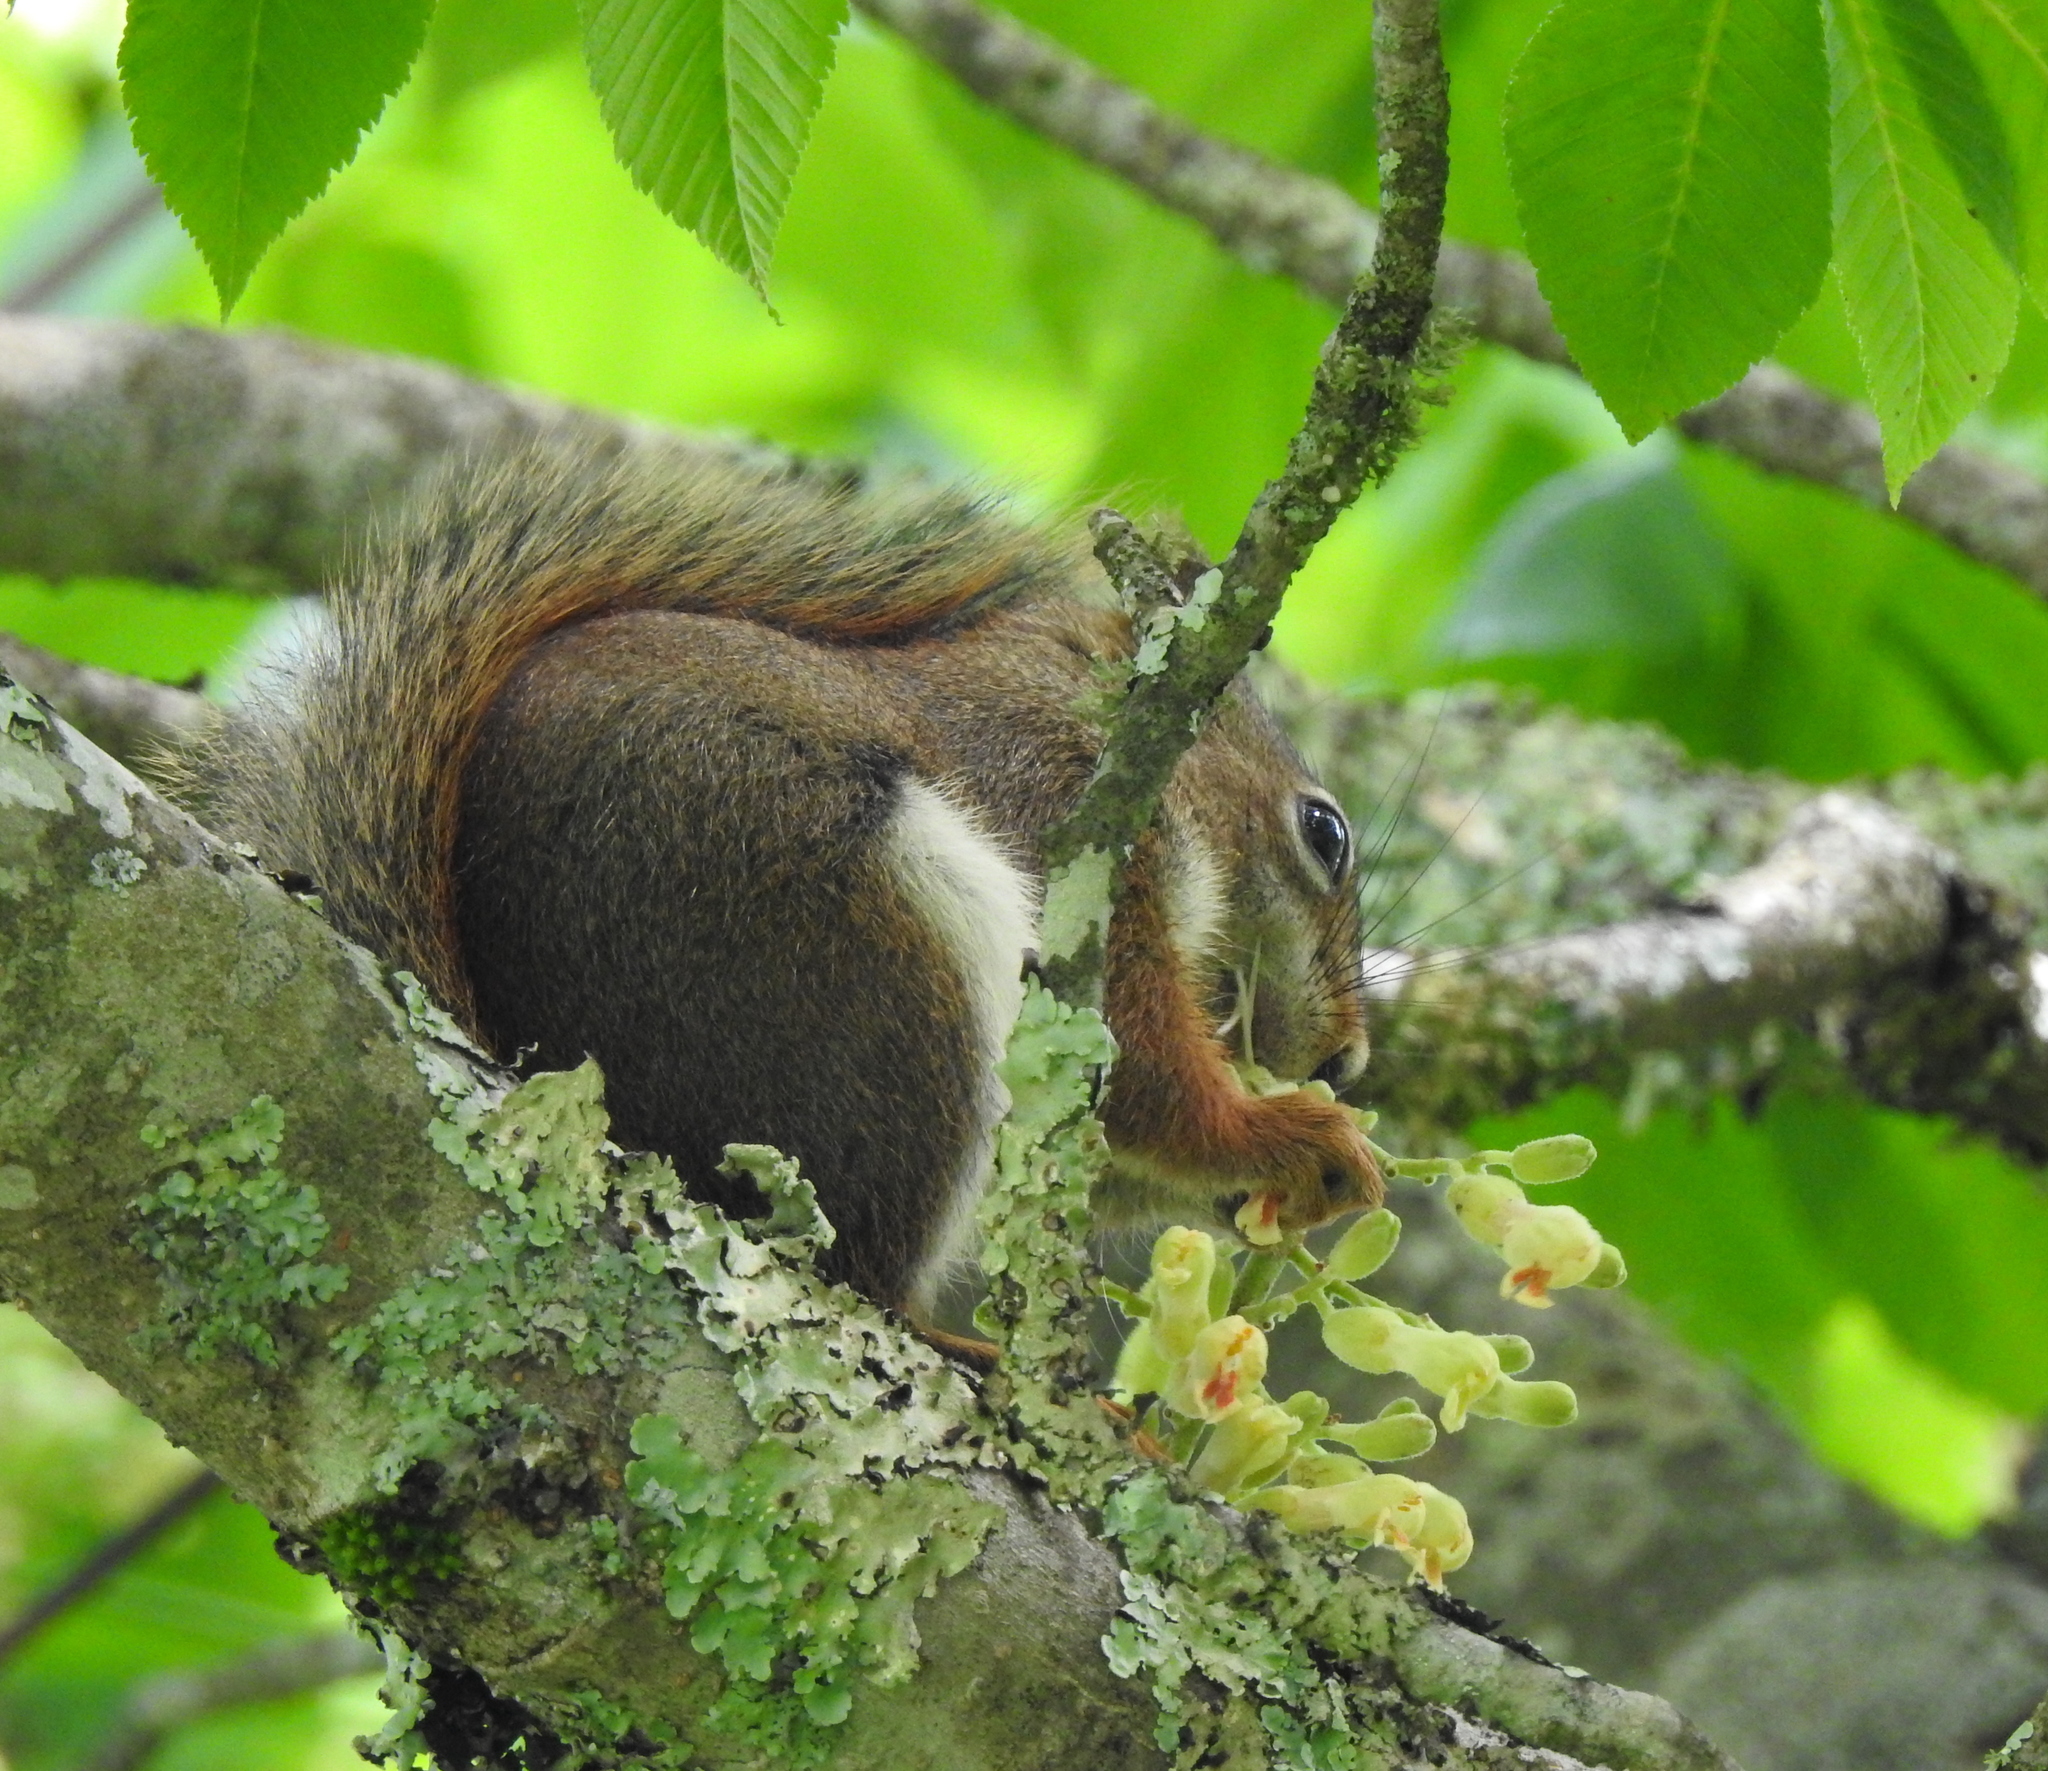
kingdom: Animalia
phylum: Chordata
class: Mammalia
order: Rodentia
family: Sciuridae
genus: Tamiasciurus
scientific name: Tamiasciurus hudsonicus
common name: Red squirrel
